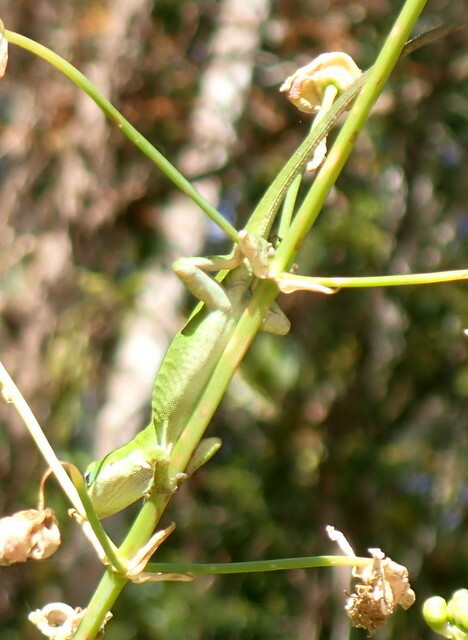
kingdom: Animalia
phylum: Chordata
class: Squamata
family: Dactyloidae
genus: Anolis
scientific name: Anolis carolinensis
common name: Green anole
